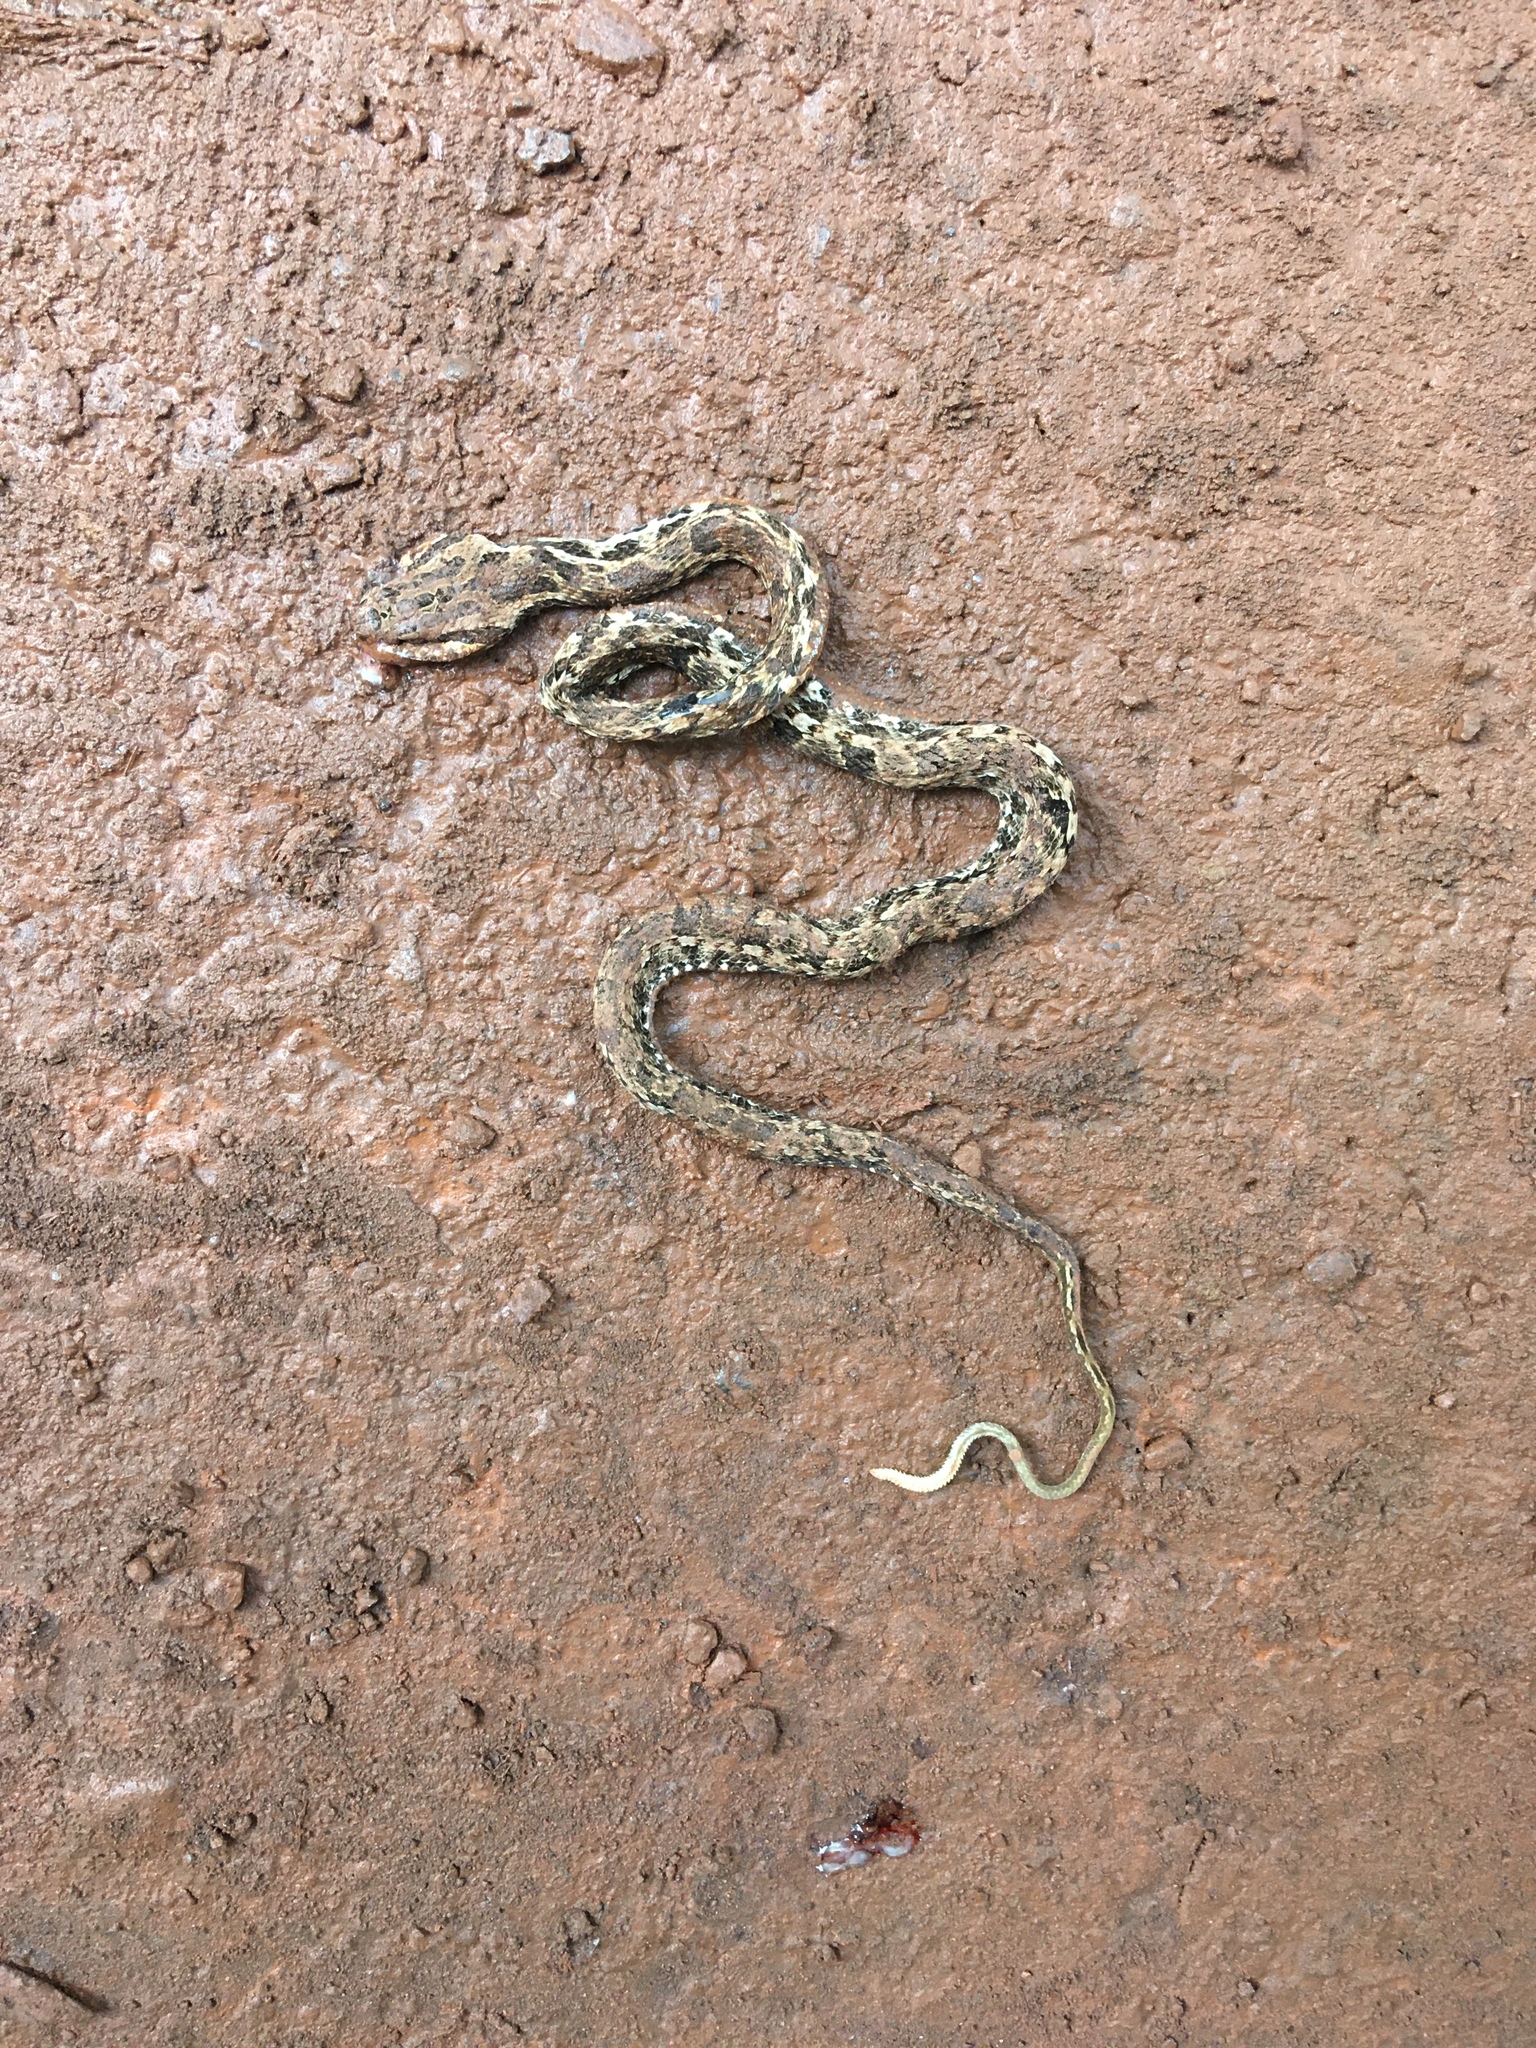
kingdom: Animalia
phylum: Chordata
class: Squamata
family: Colubridae
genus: Tropidodryas
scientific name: Tropidodryas striaticeps
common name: Jiboinha
